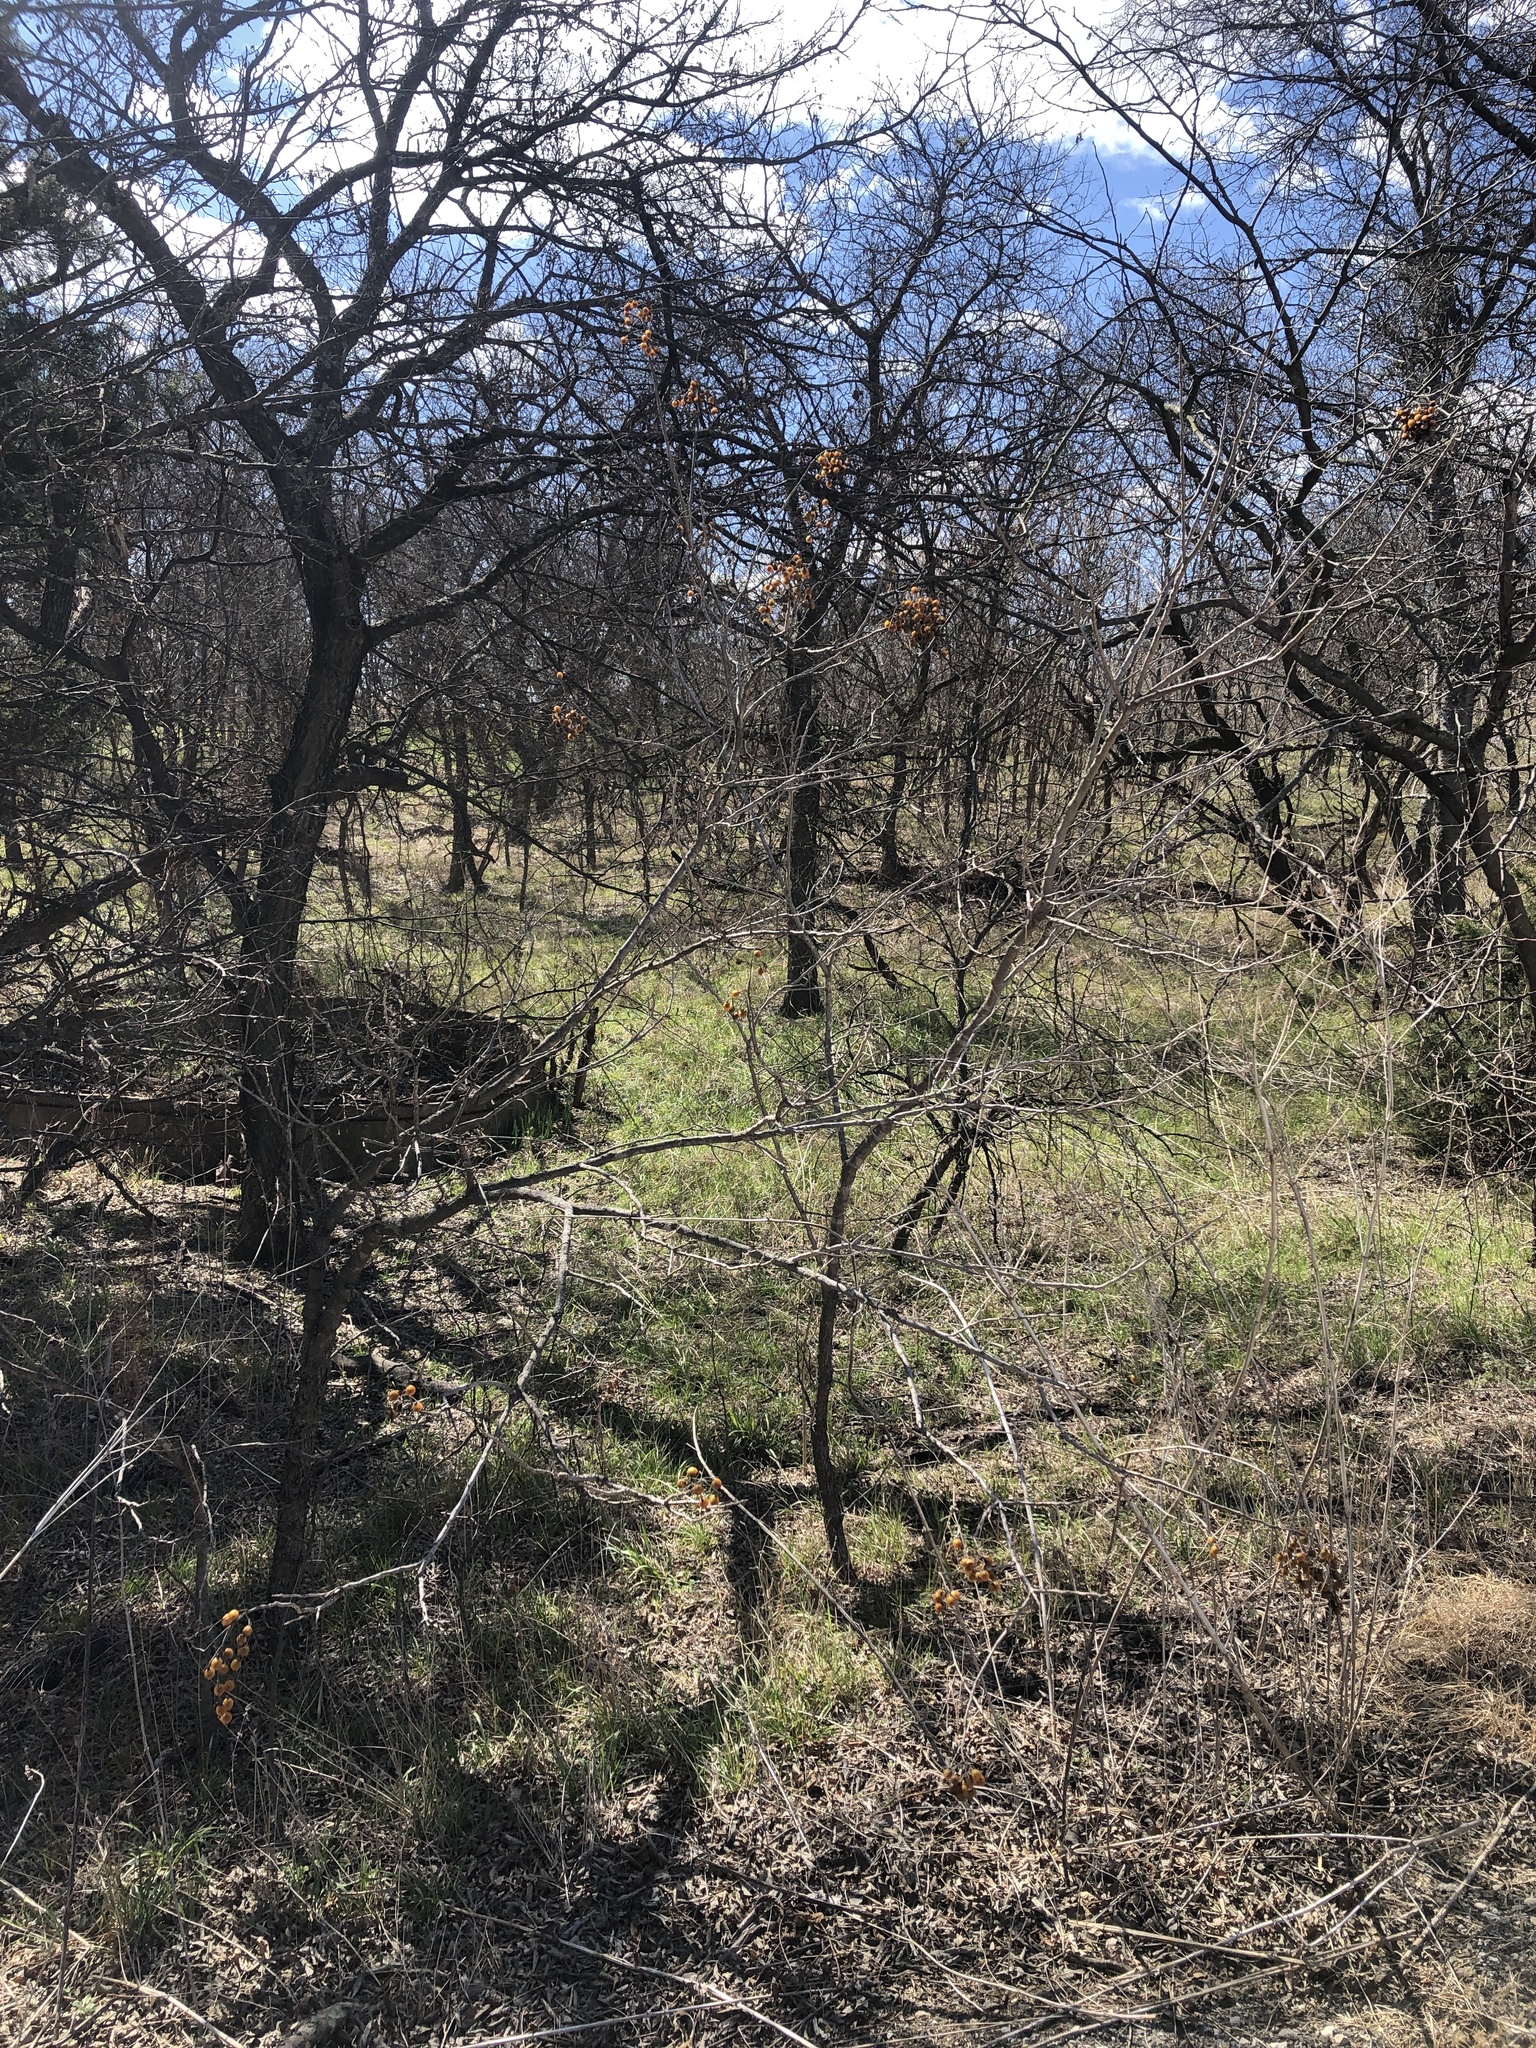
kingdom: Plantae
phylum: Tracheophyta
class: Magnoliopsida
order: Sapindales
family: Sapindaceae
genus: Sapindus
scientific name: Sapindus drummondii
